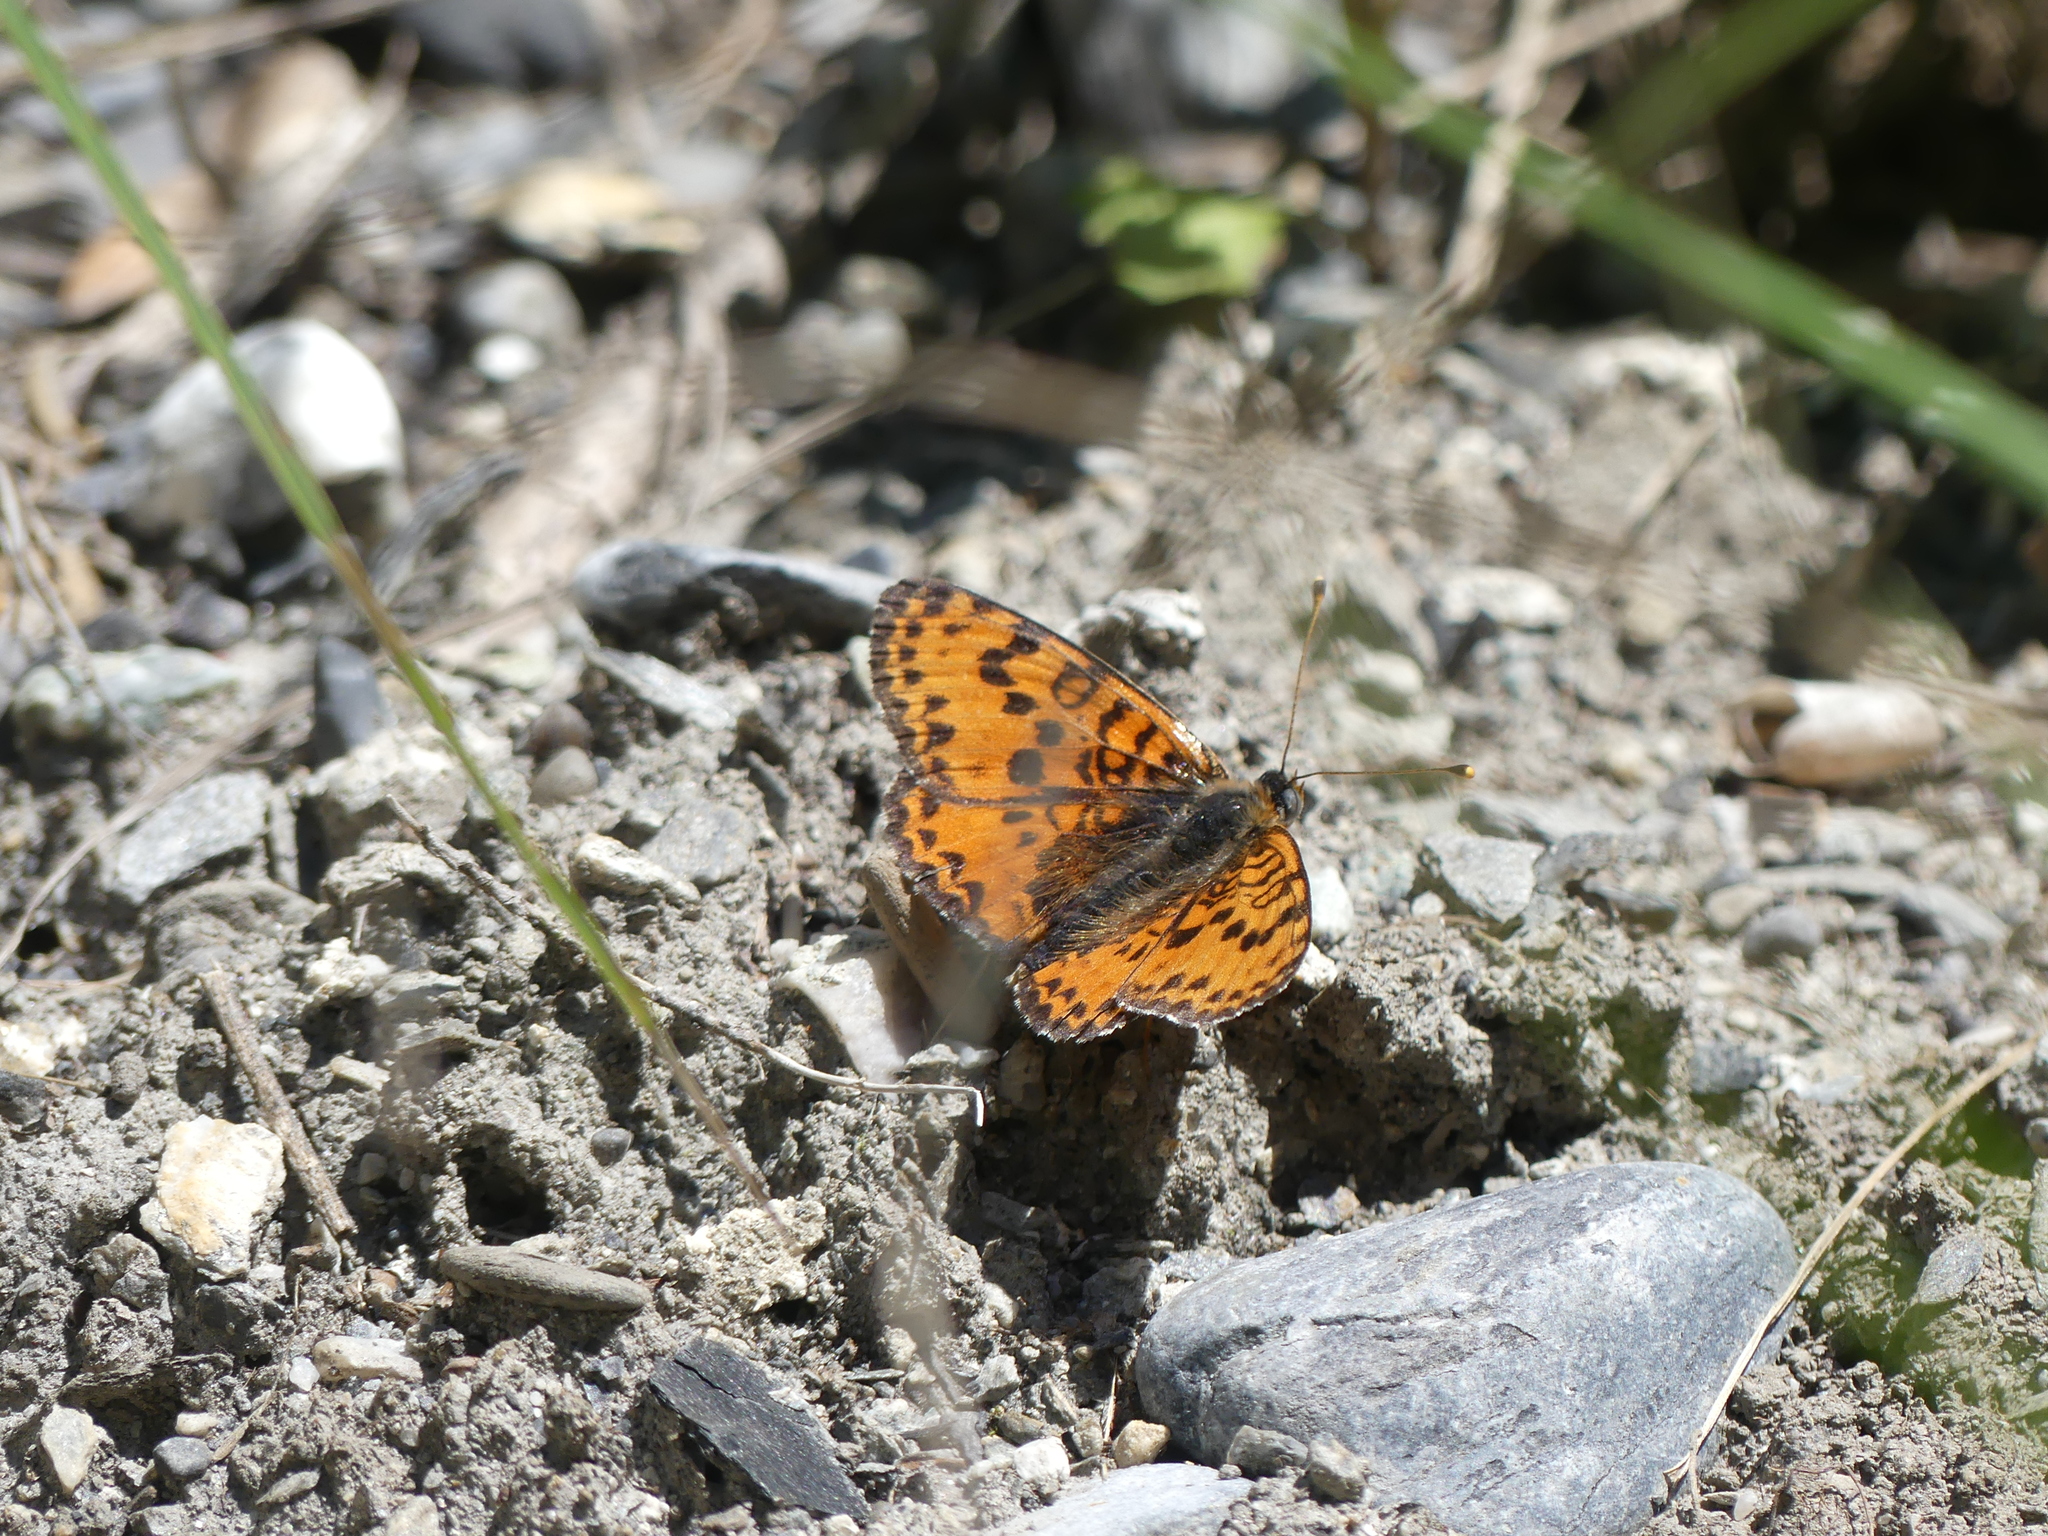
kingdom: Animalia
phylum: Arthropoda
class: Insecta
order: Lepidoptera
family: Nymphalidae
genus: Melitaea
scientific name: Melitaea didyma
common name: Spotted fritillary
